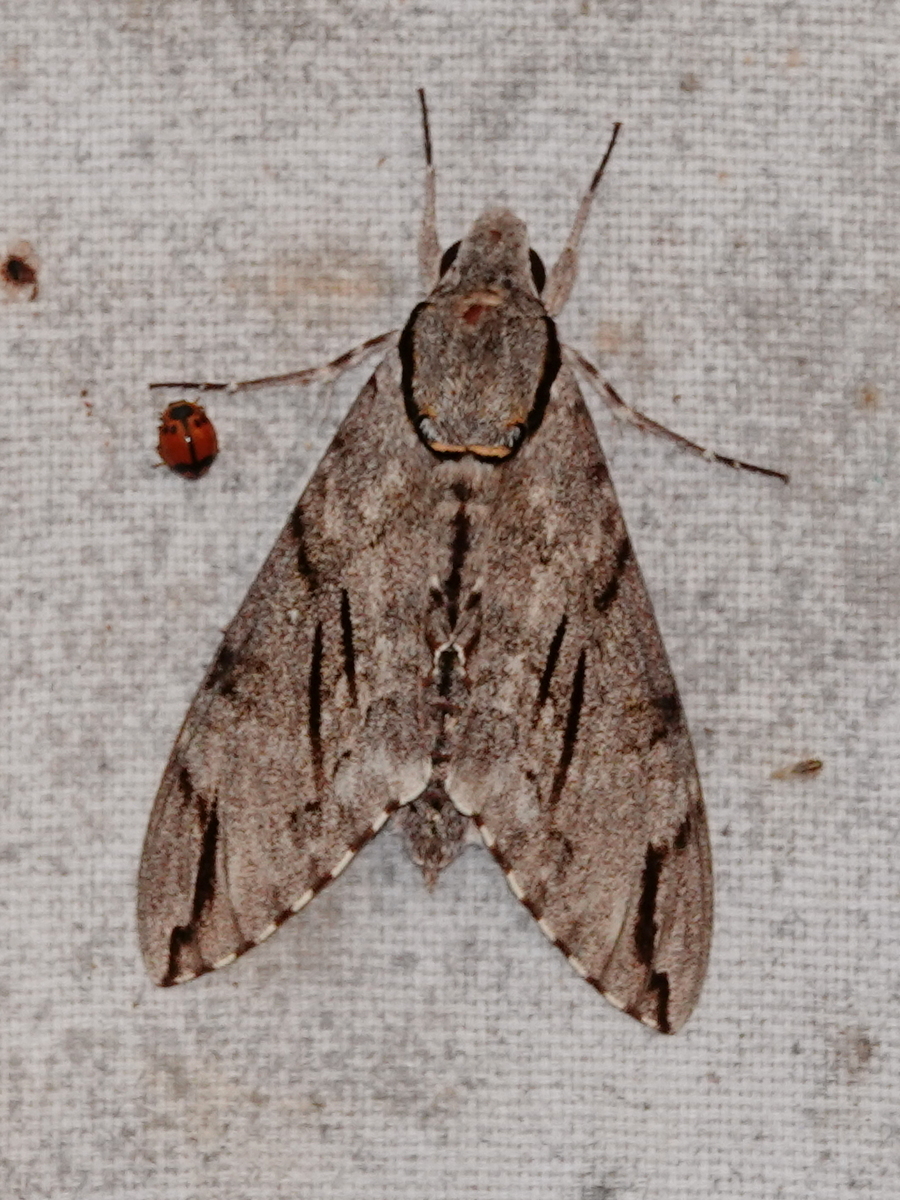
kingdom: Animalia
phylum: Arthropoda
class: Insecta
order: Lepidoptera
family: Sphingidae
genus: Psilogramma
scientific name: Psilogramma increta
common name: Gray hawk moth
